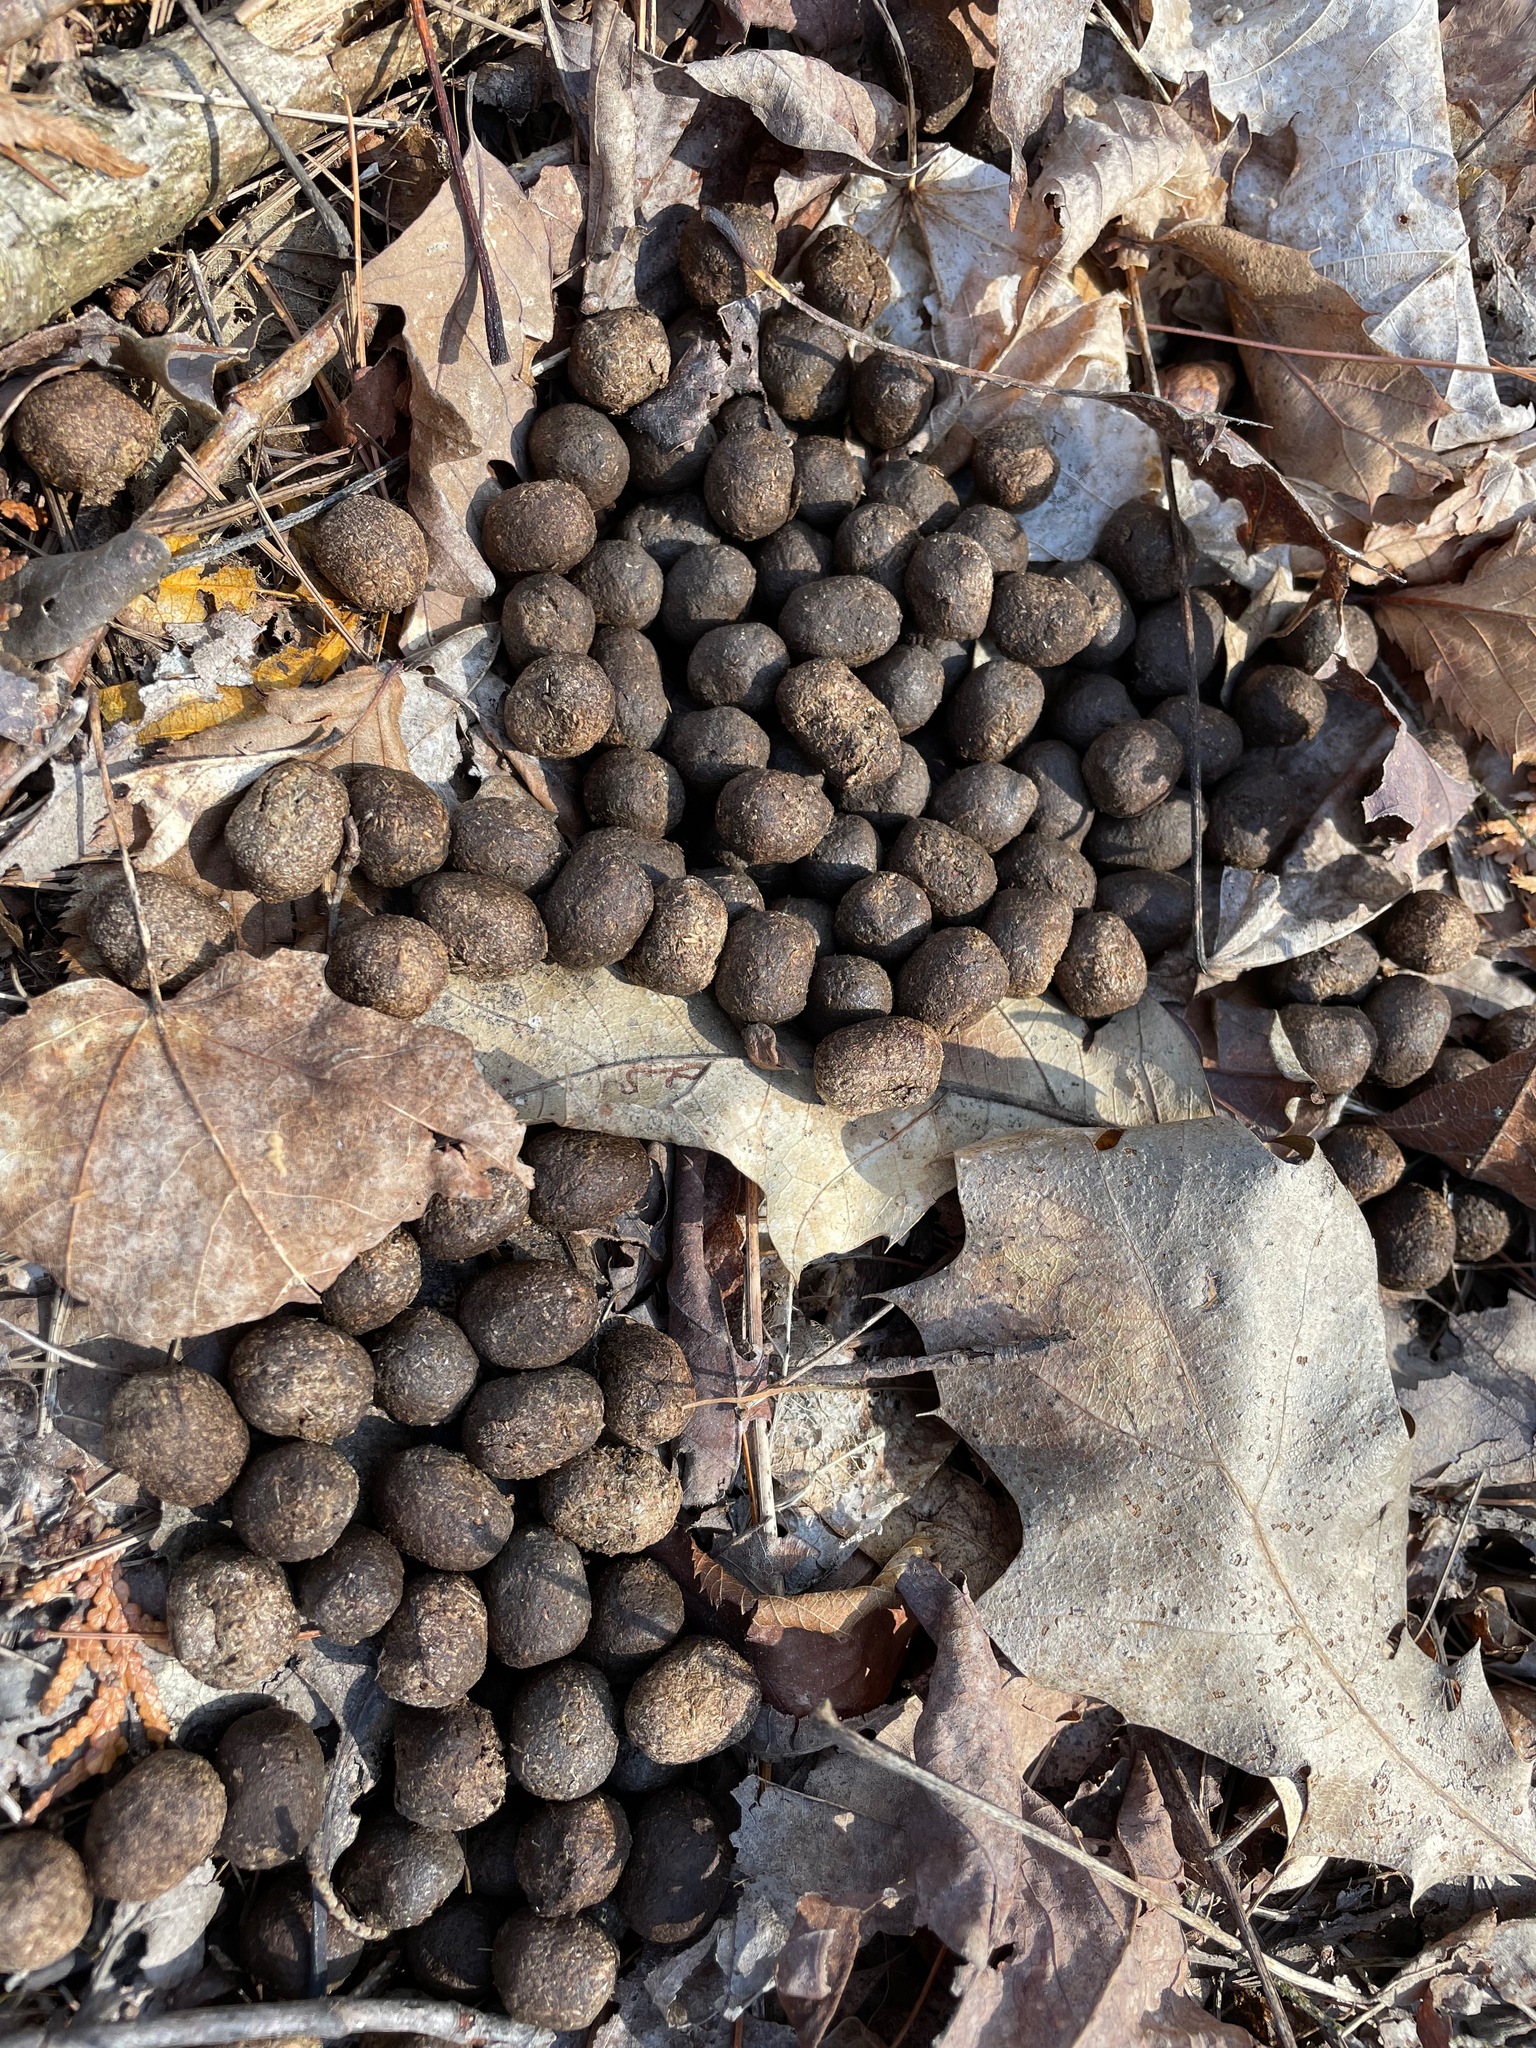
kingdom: Animalia
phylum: Chordata
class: Mammalia
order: Artiodactyla
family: Cervidae
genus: Odocoileus
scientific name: Odocoileus virginianus
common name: White-tailed deer
